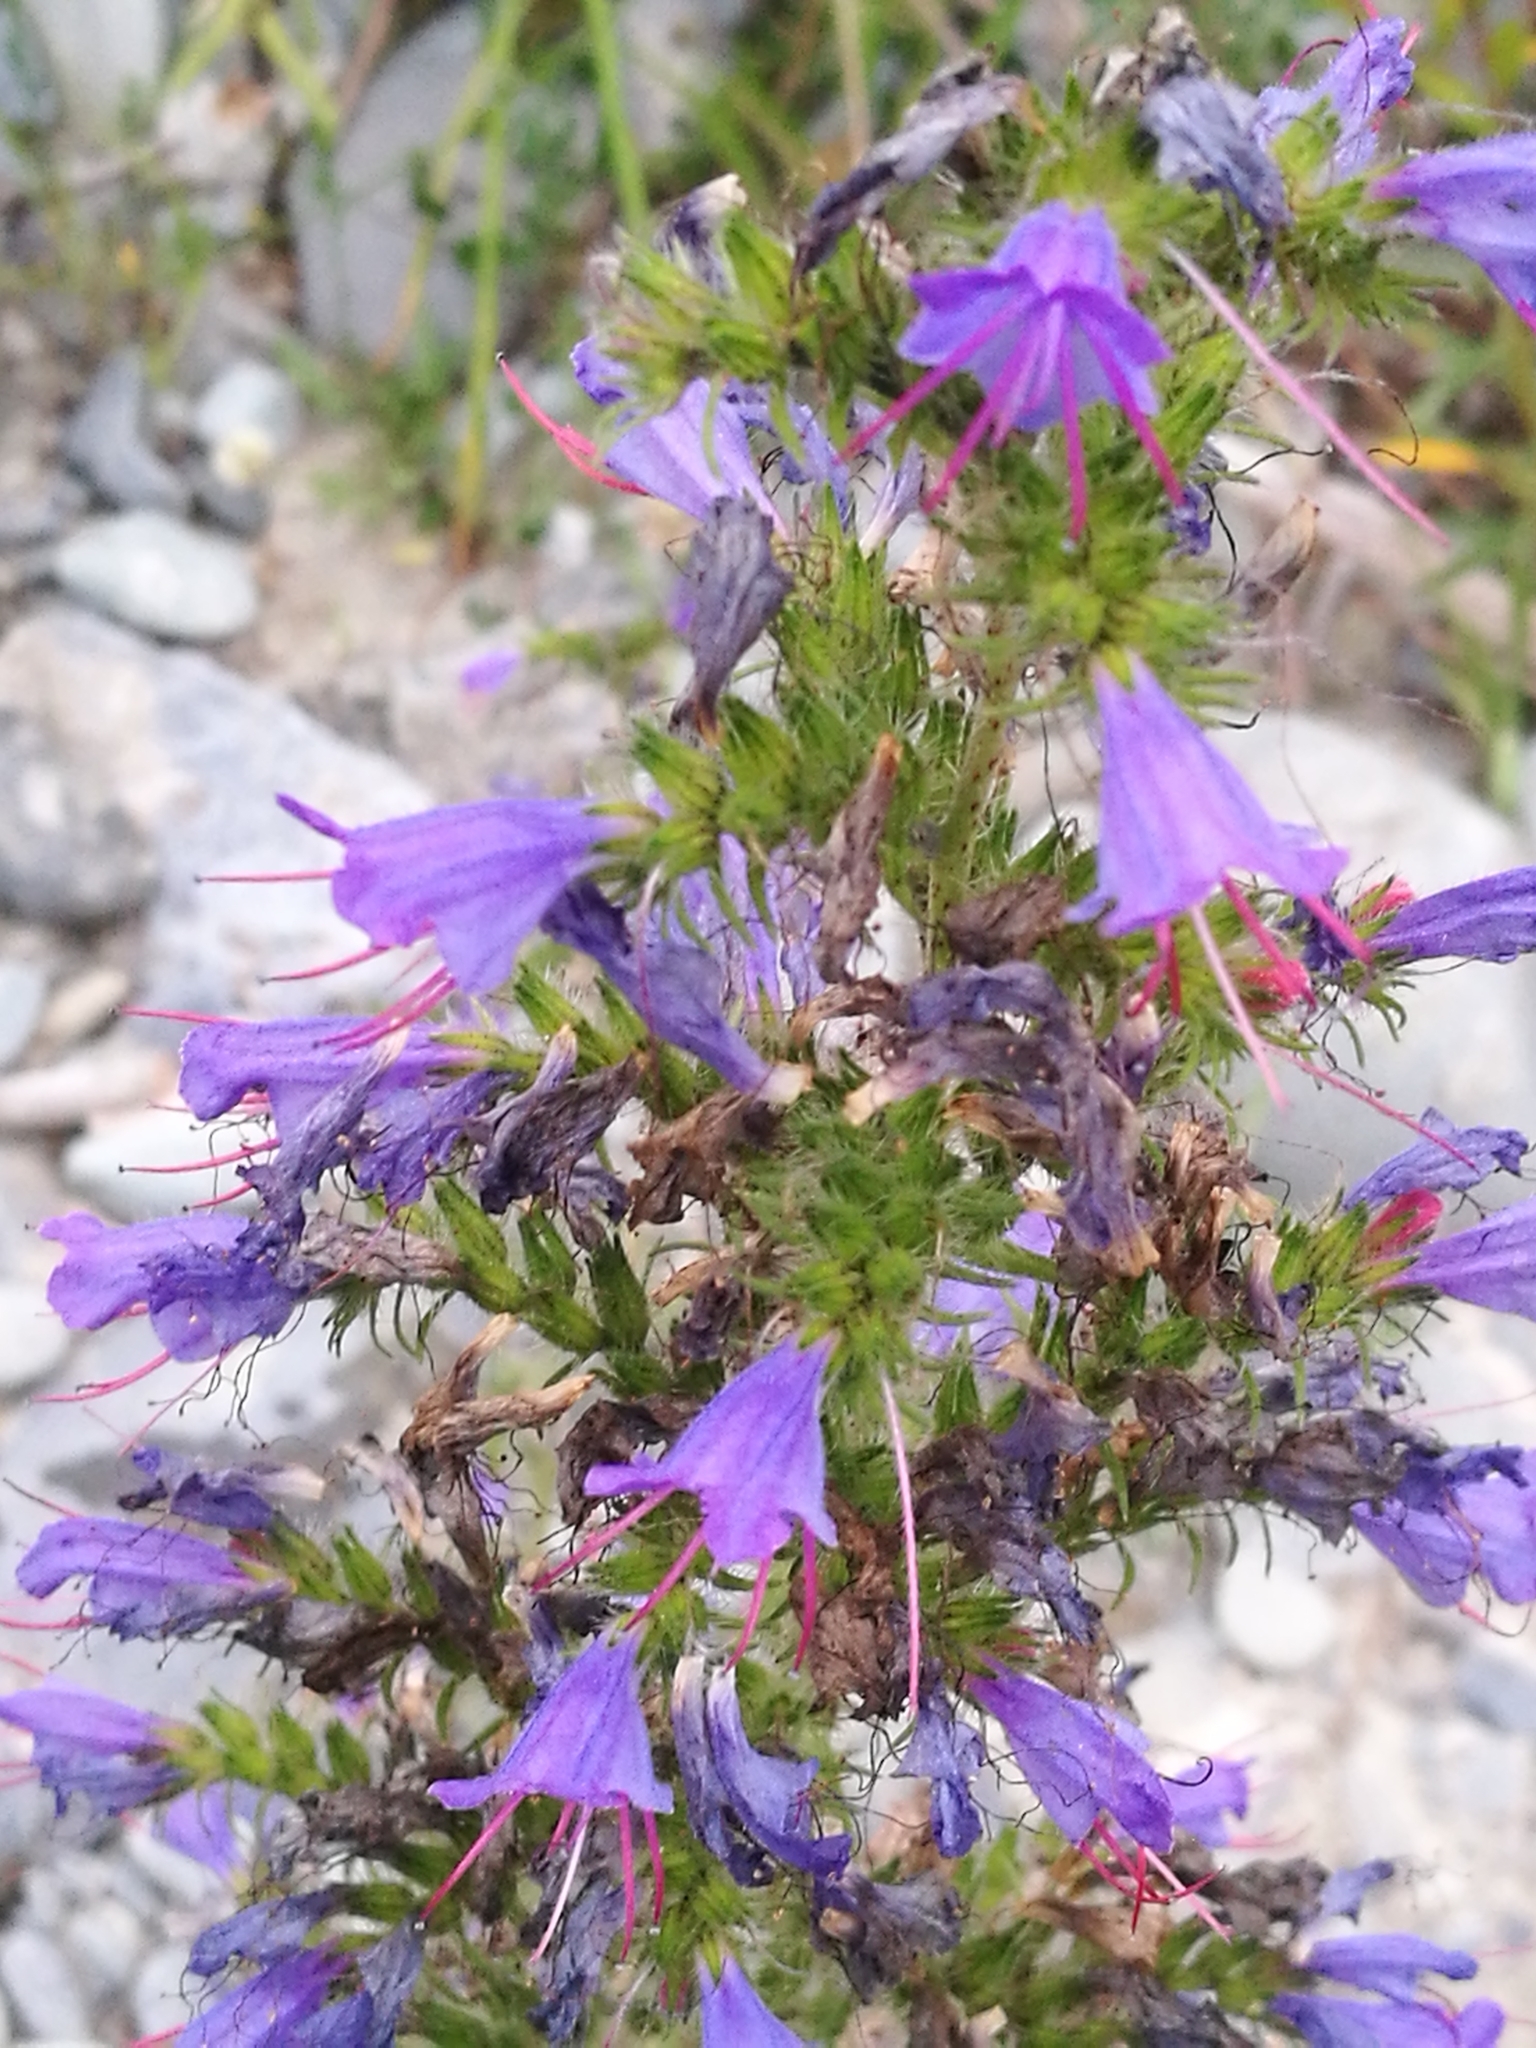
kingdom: Plantae
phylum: Tracheophyta
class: Magnoliopsida
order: Boraginales
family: Boraginaceae
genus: Echium
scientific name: Echium vulgare
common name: Common viper's bugloss
